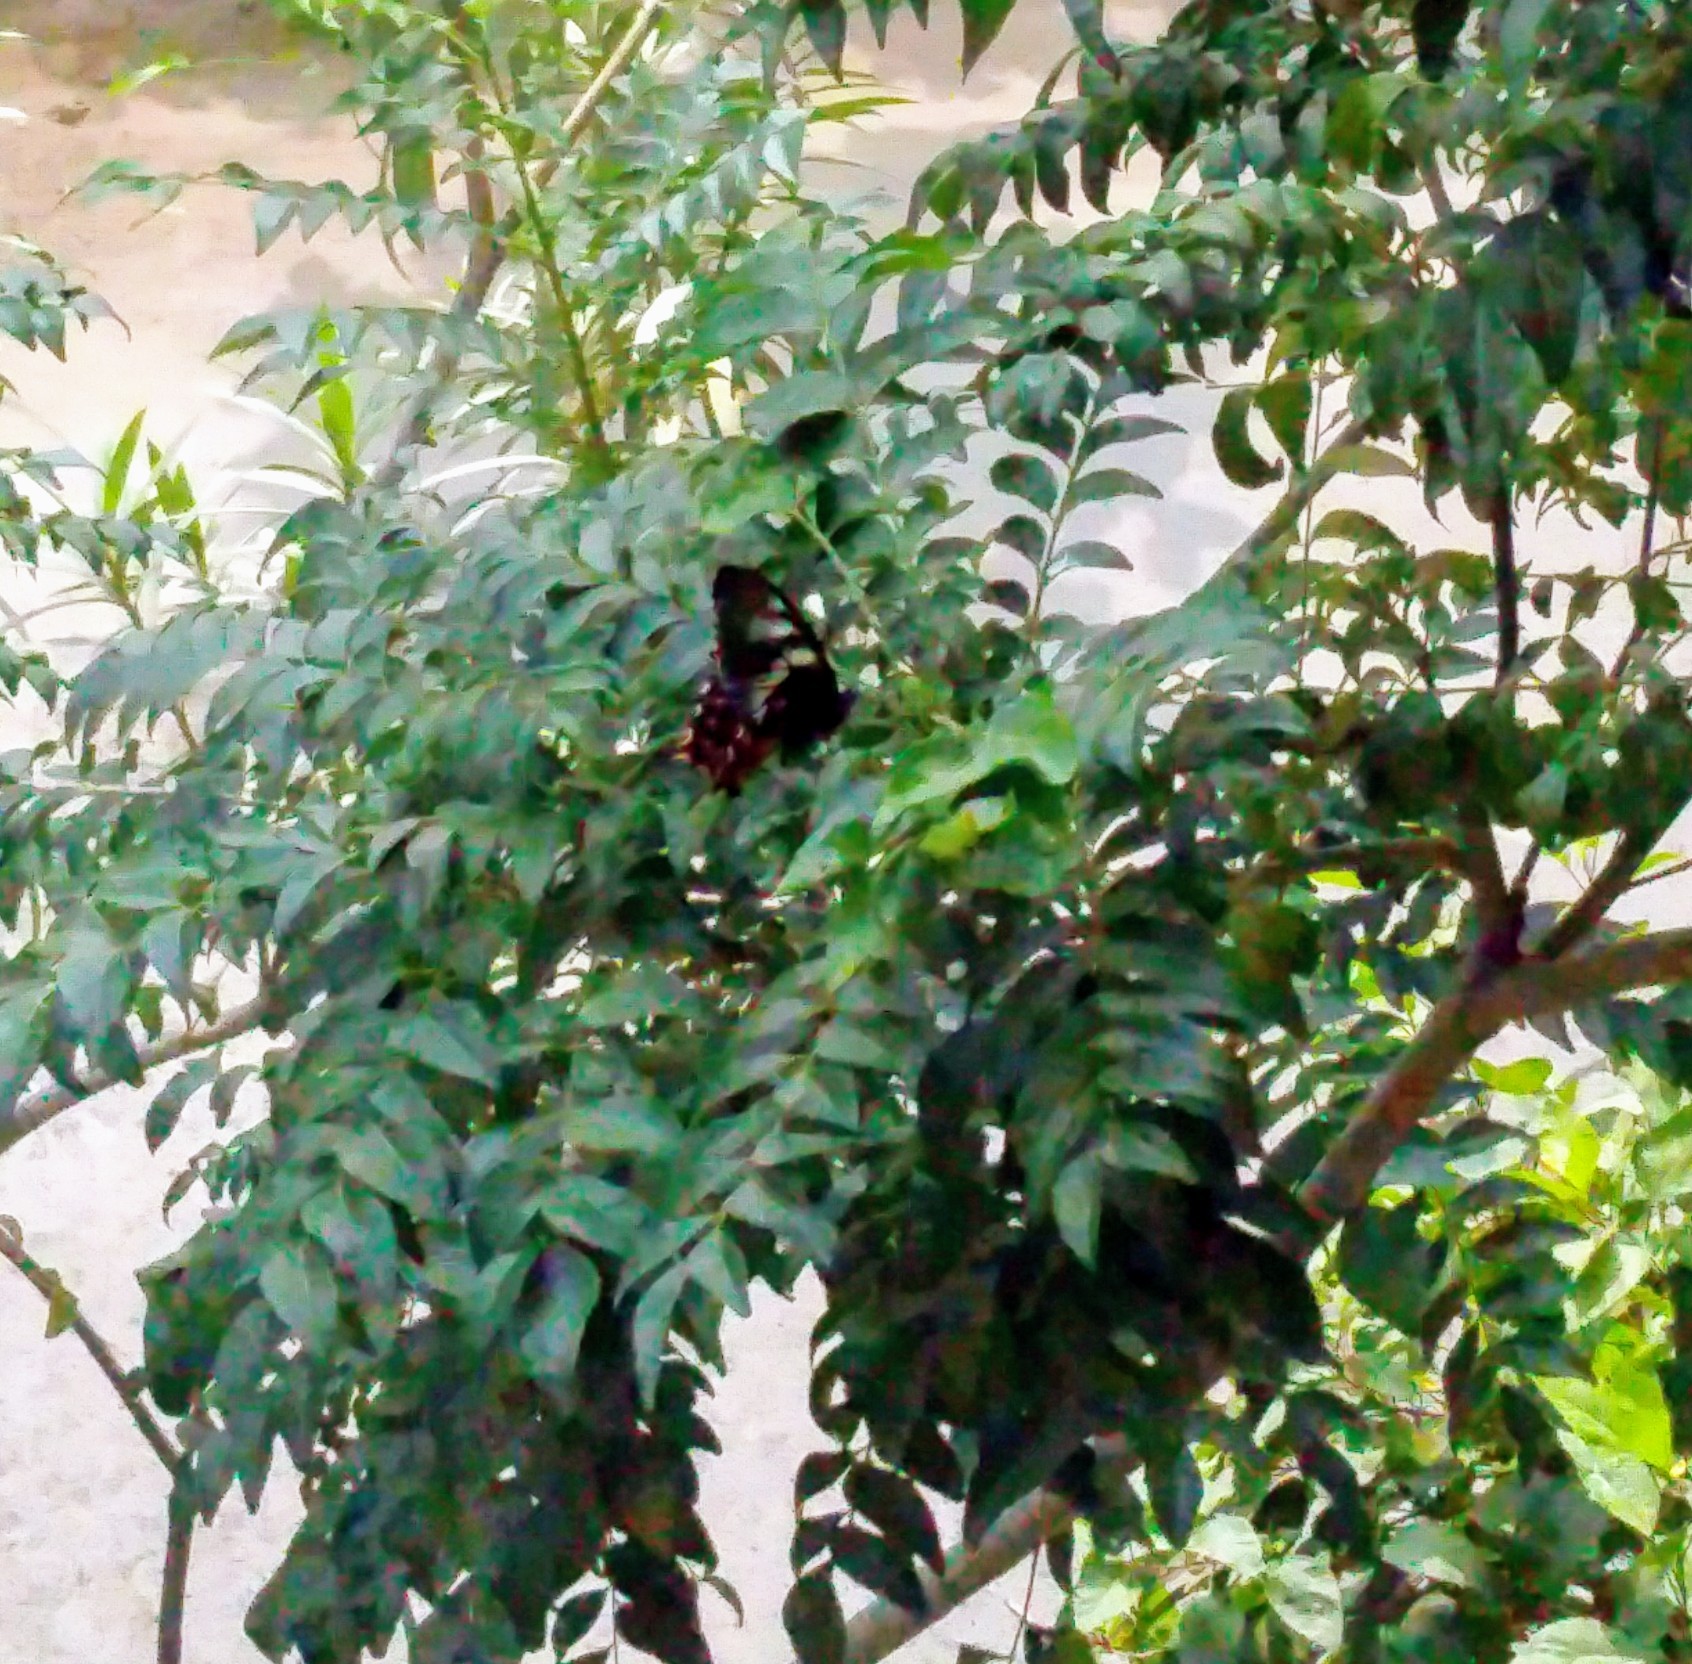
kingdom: Animalia
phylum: Arthropoda
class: Insecta
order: Lepidoptera
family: Papilionidae
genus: Papilio
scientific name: Papilio polytes
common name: Common mormon
